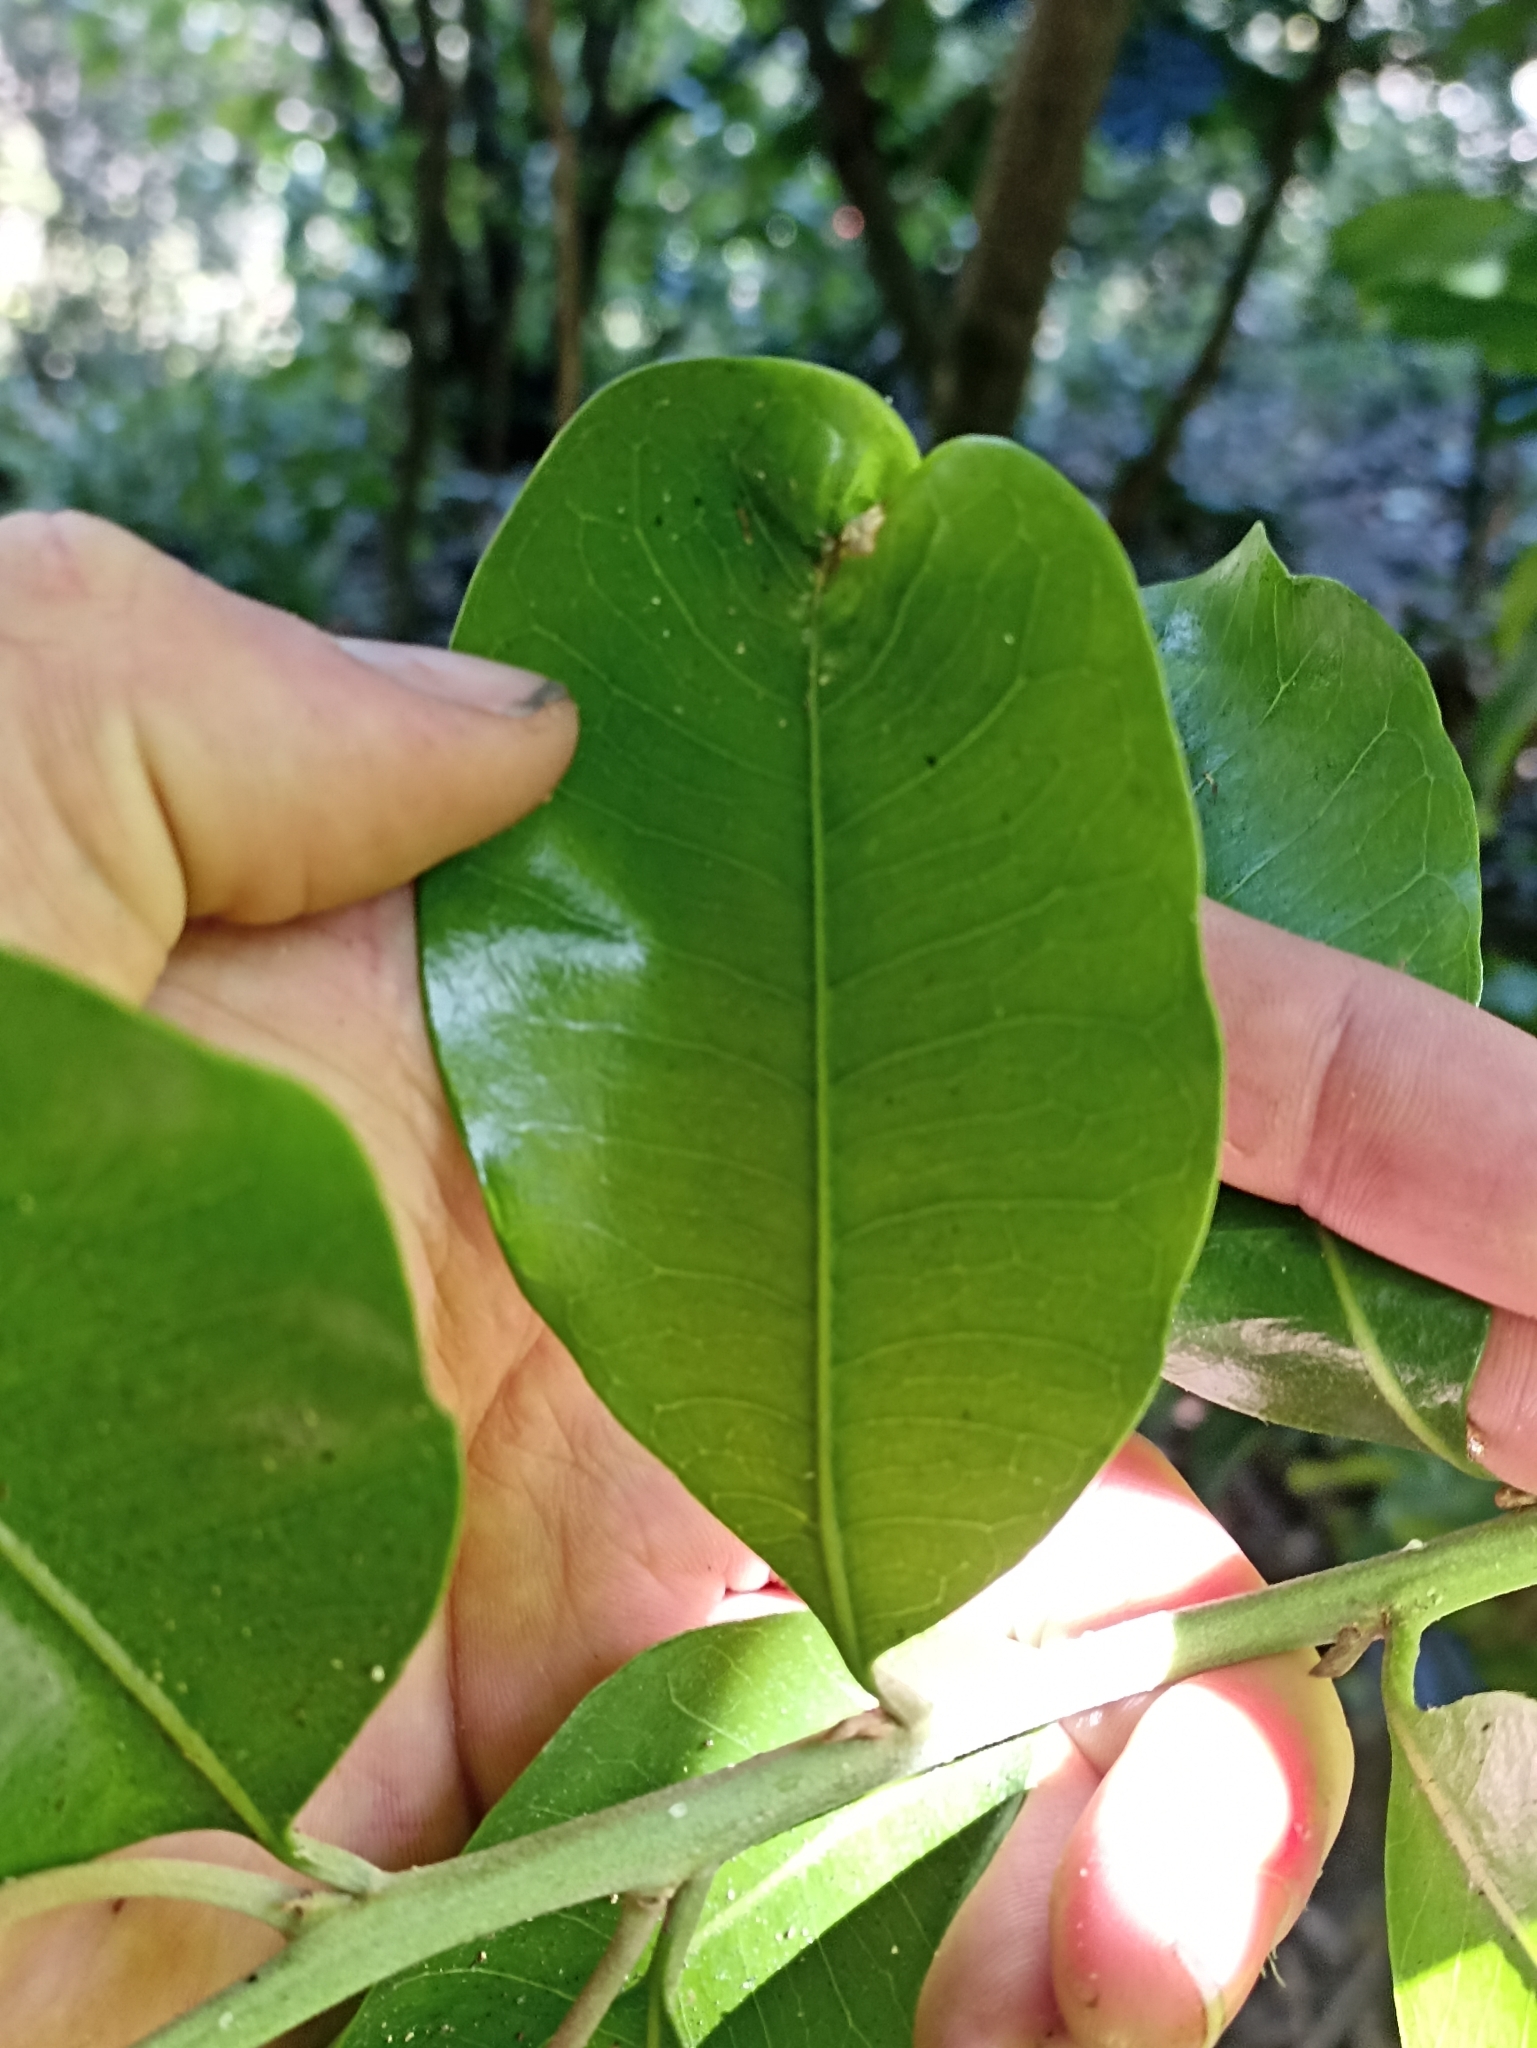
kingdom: Plantae
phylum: Tracheophyta
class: Magnoliopsida
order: Ericales
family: Sapotaceae
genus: Planchonella
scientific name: Planchonella costata
